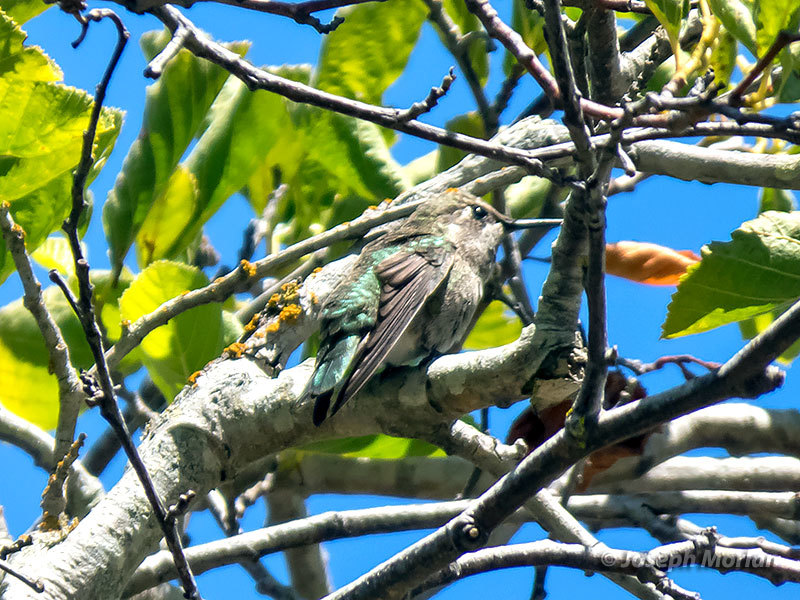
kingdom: Animalia
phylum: Chordata
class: Aves
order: Apodiformes
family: Trochilidae
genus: Calypte
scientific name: Calypte anna
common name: Anna's hummingbird
